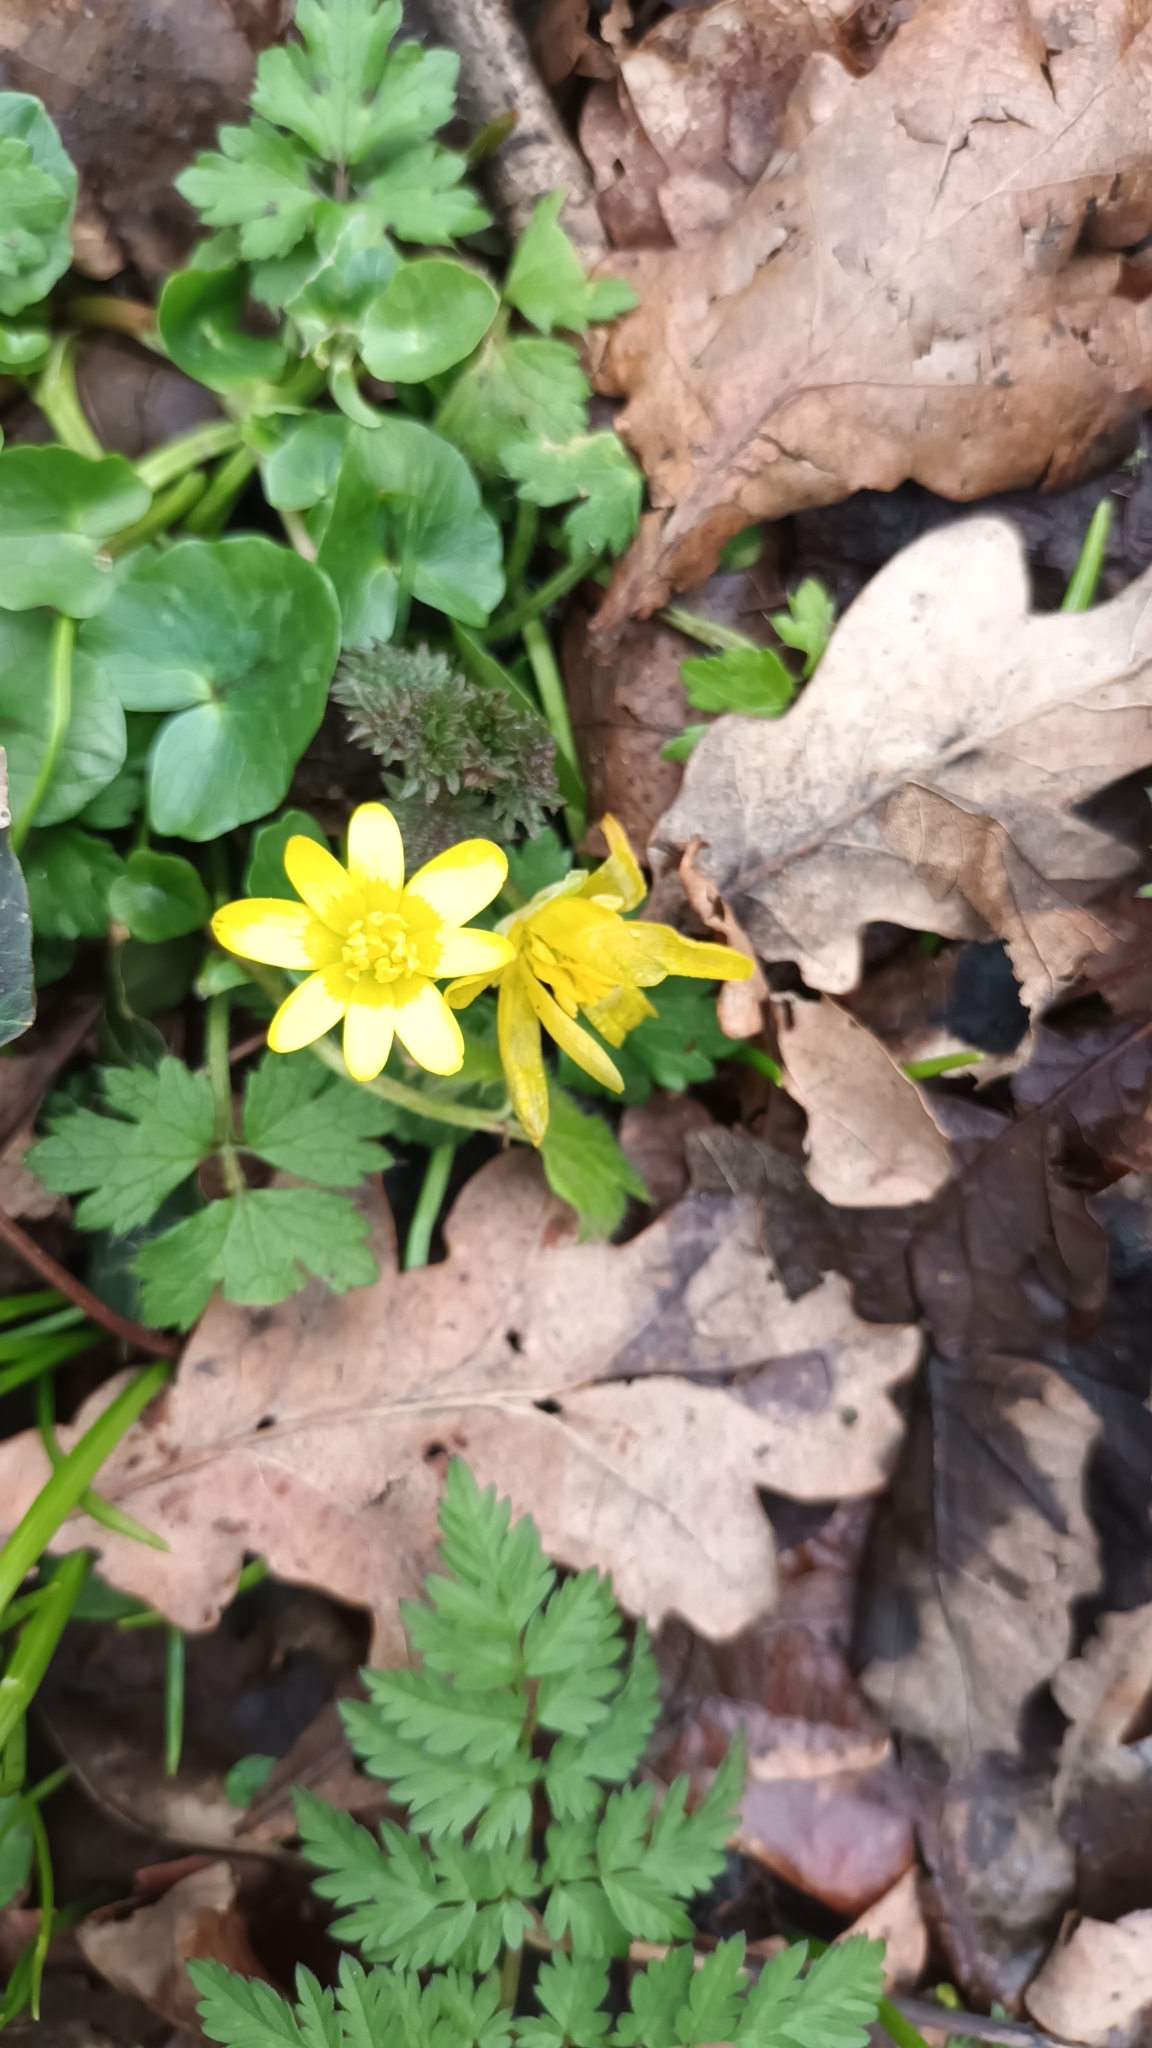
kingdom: Plantae
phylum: Tracheophyta
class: Magnoliopsida
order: Ranunculales
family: Ranunculaceae
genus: Ficaria
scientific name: Ficaria verna
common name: Lesser celandine
